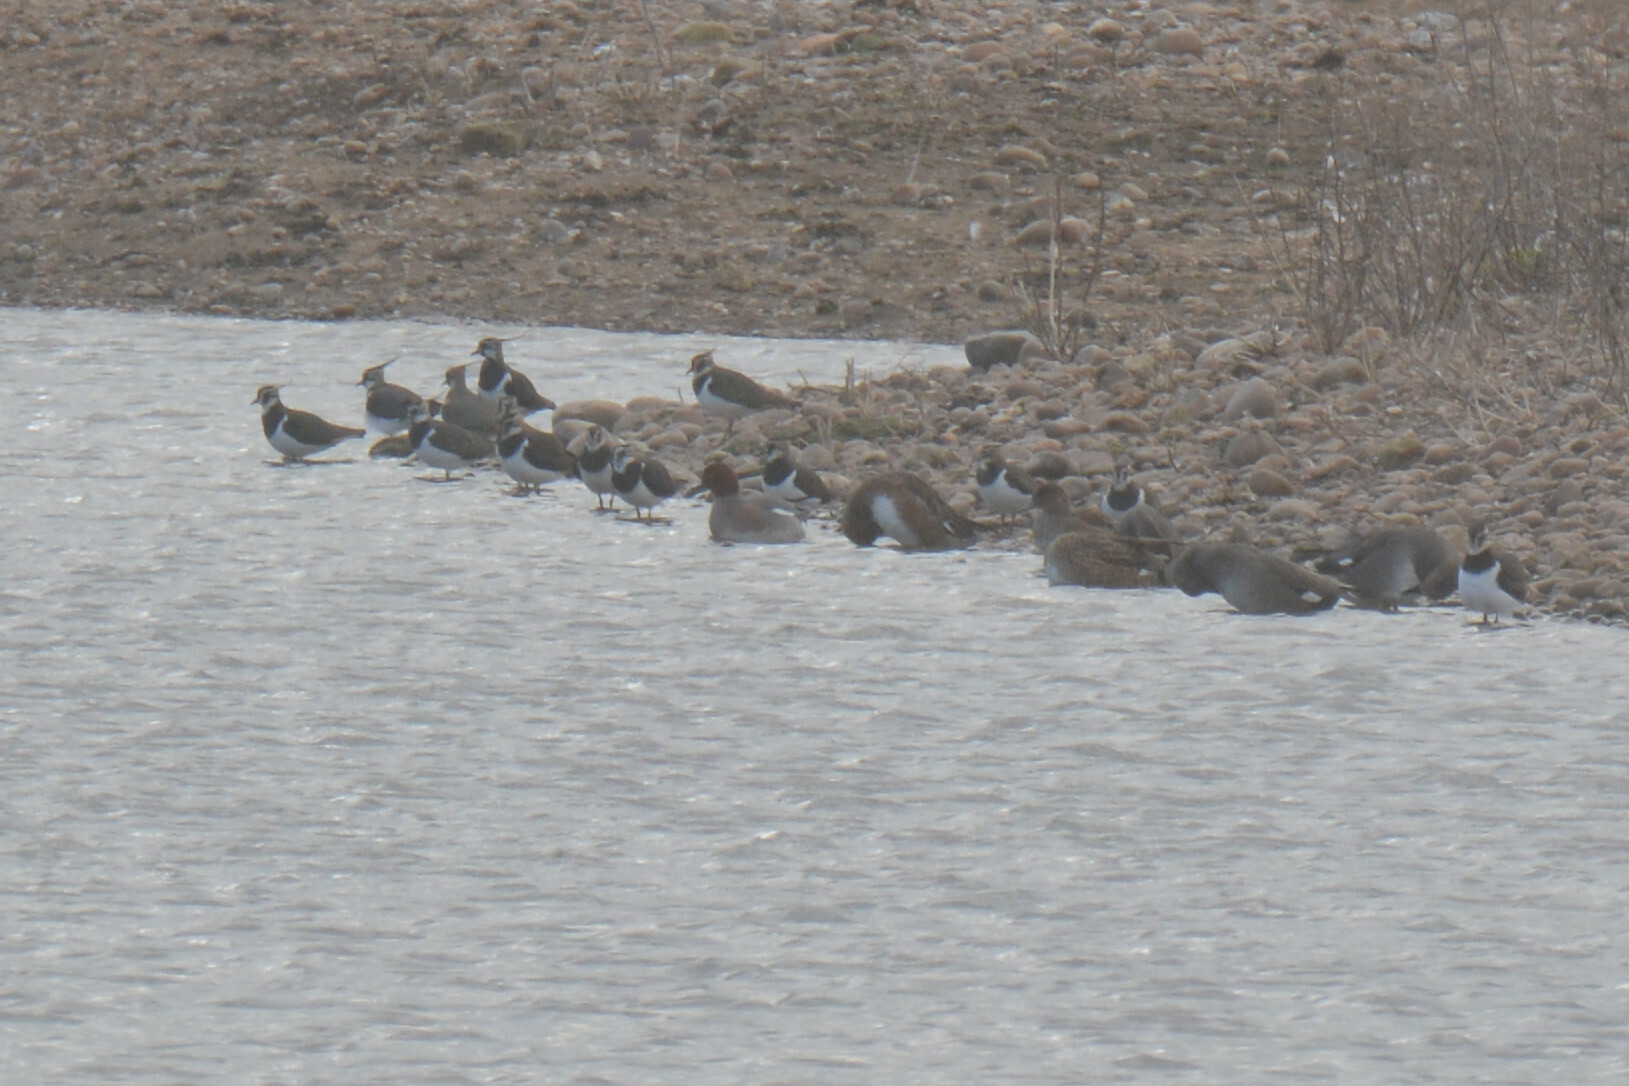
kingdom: Animalia
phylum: Chordata
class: Aves
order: Charadriiformes
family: Charadriidae
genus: Vanellus
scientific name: Vanellus vanellus
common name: Northern lapwing
